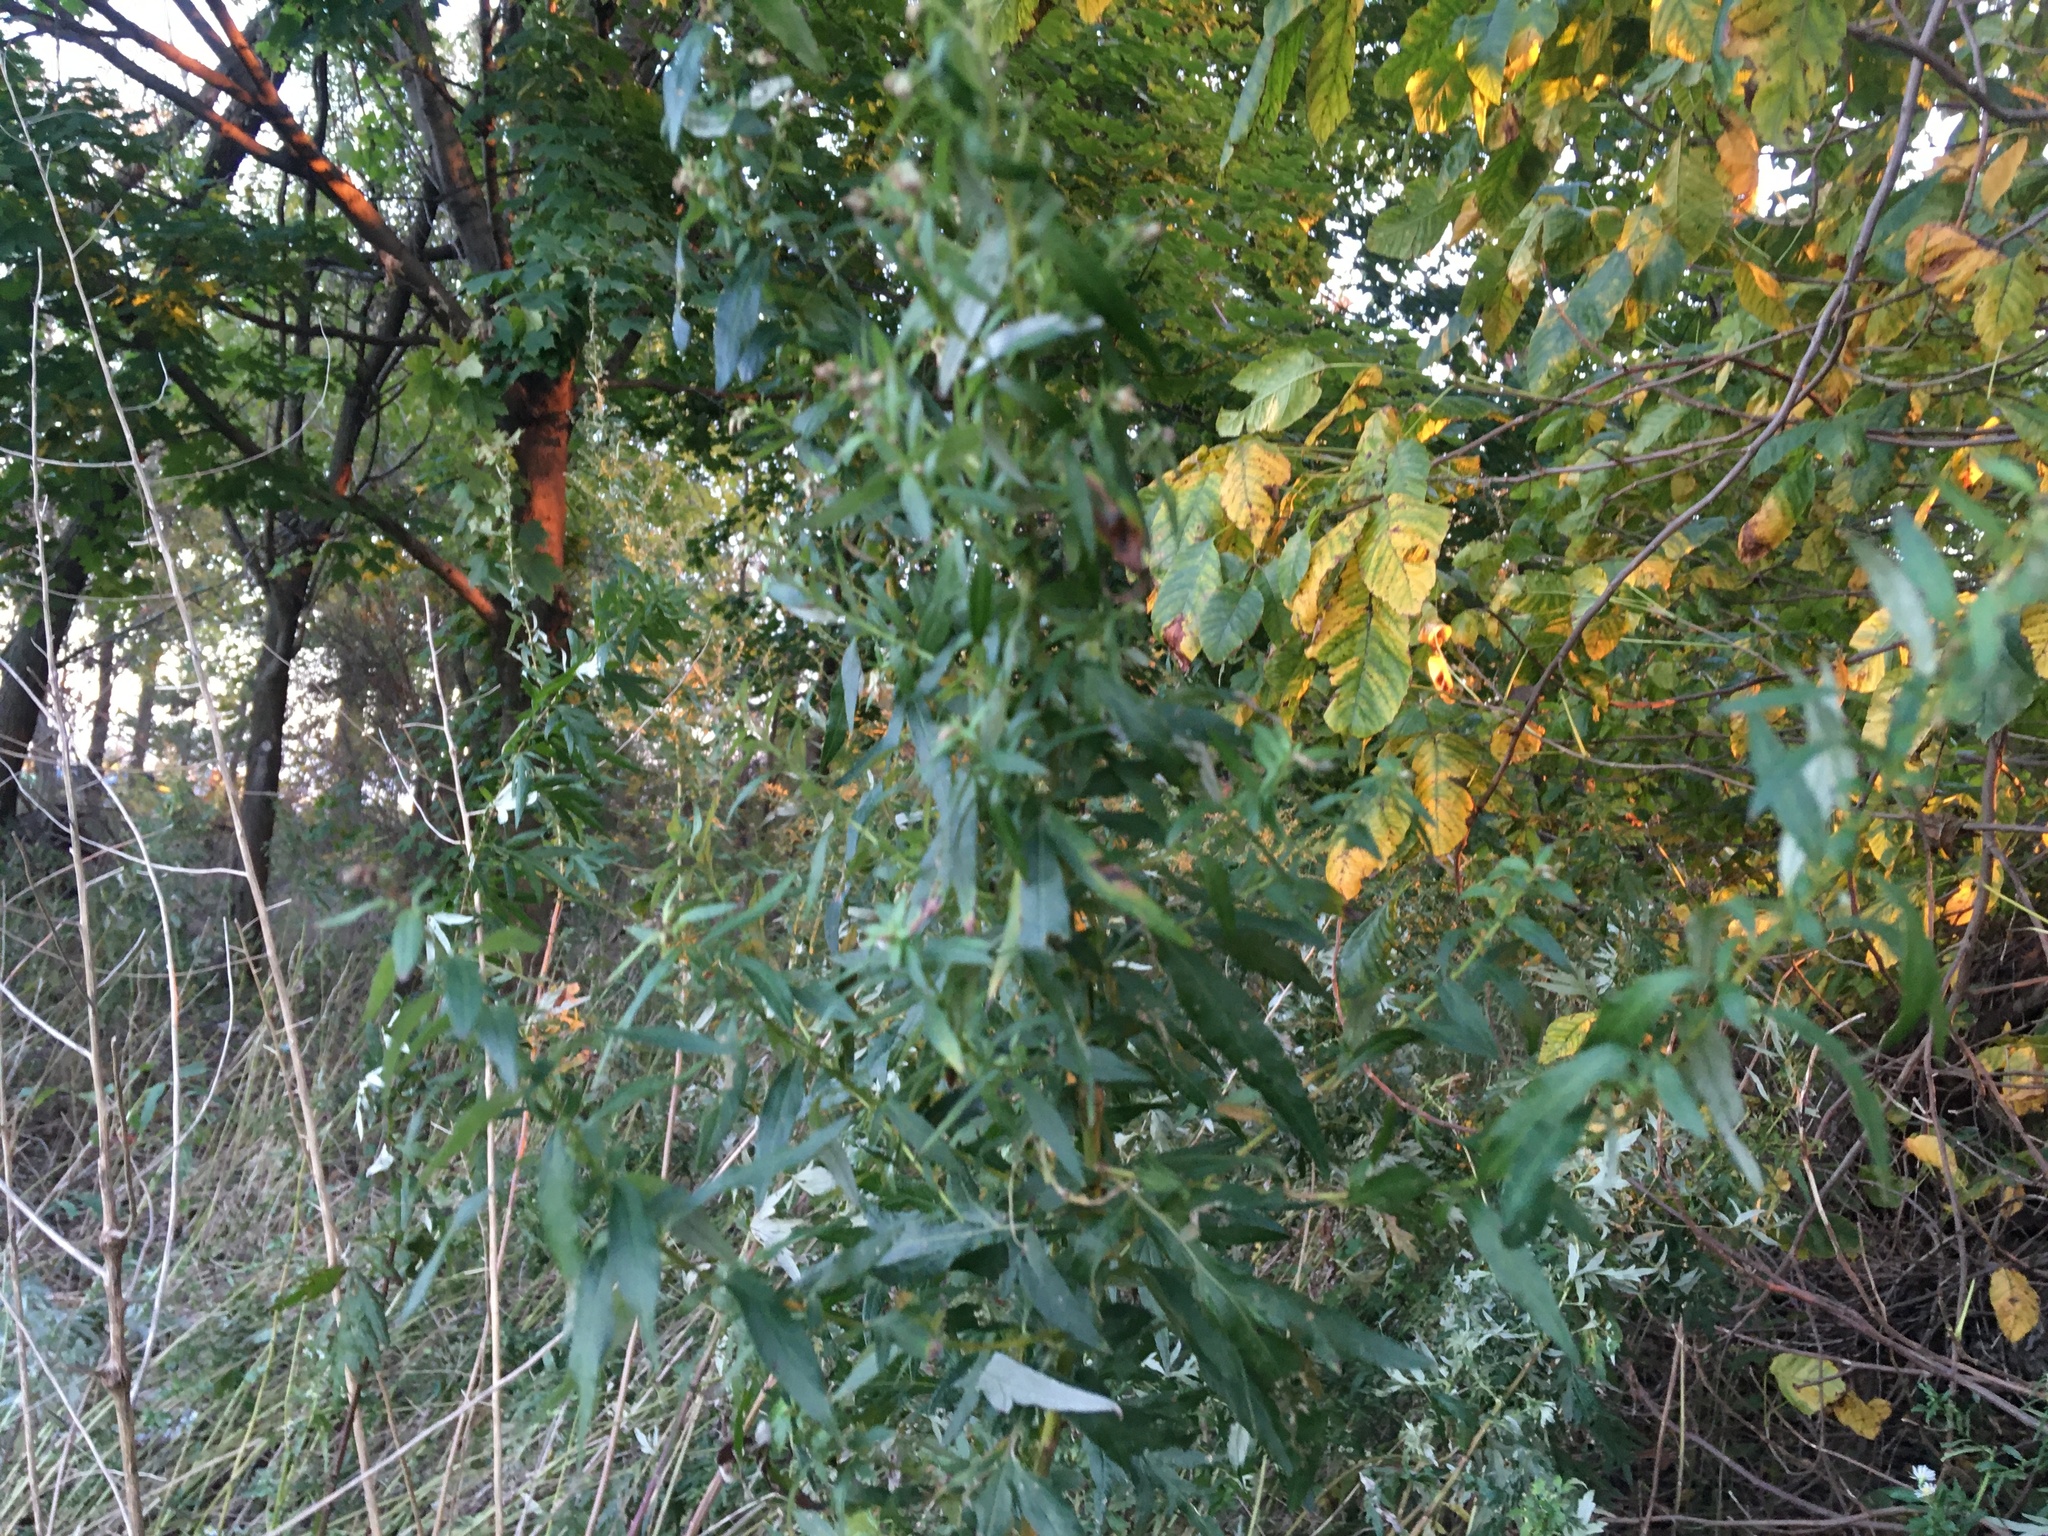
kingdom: Plantae
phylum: Tracheophyta
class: Magnoliopsida
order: Asterales
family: Asteraceae
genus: Artemisia
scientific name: Artemisia vulgaris
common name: Mugwort
